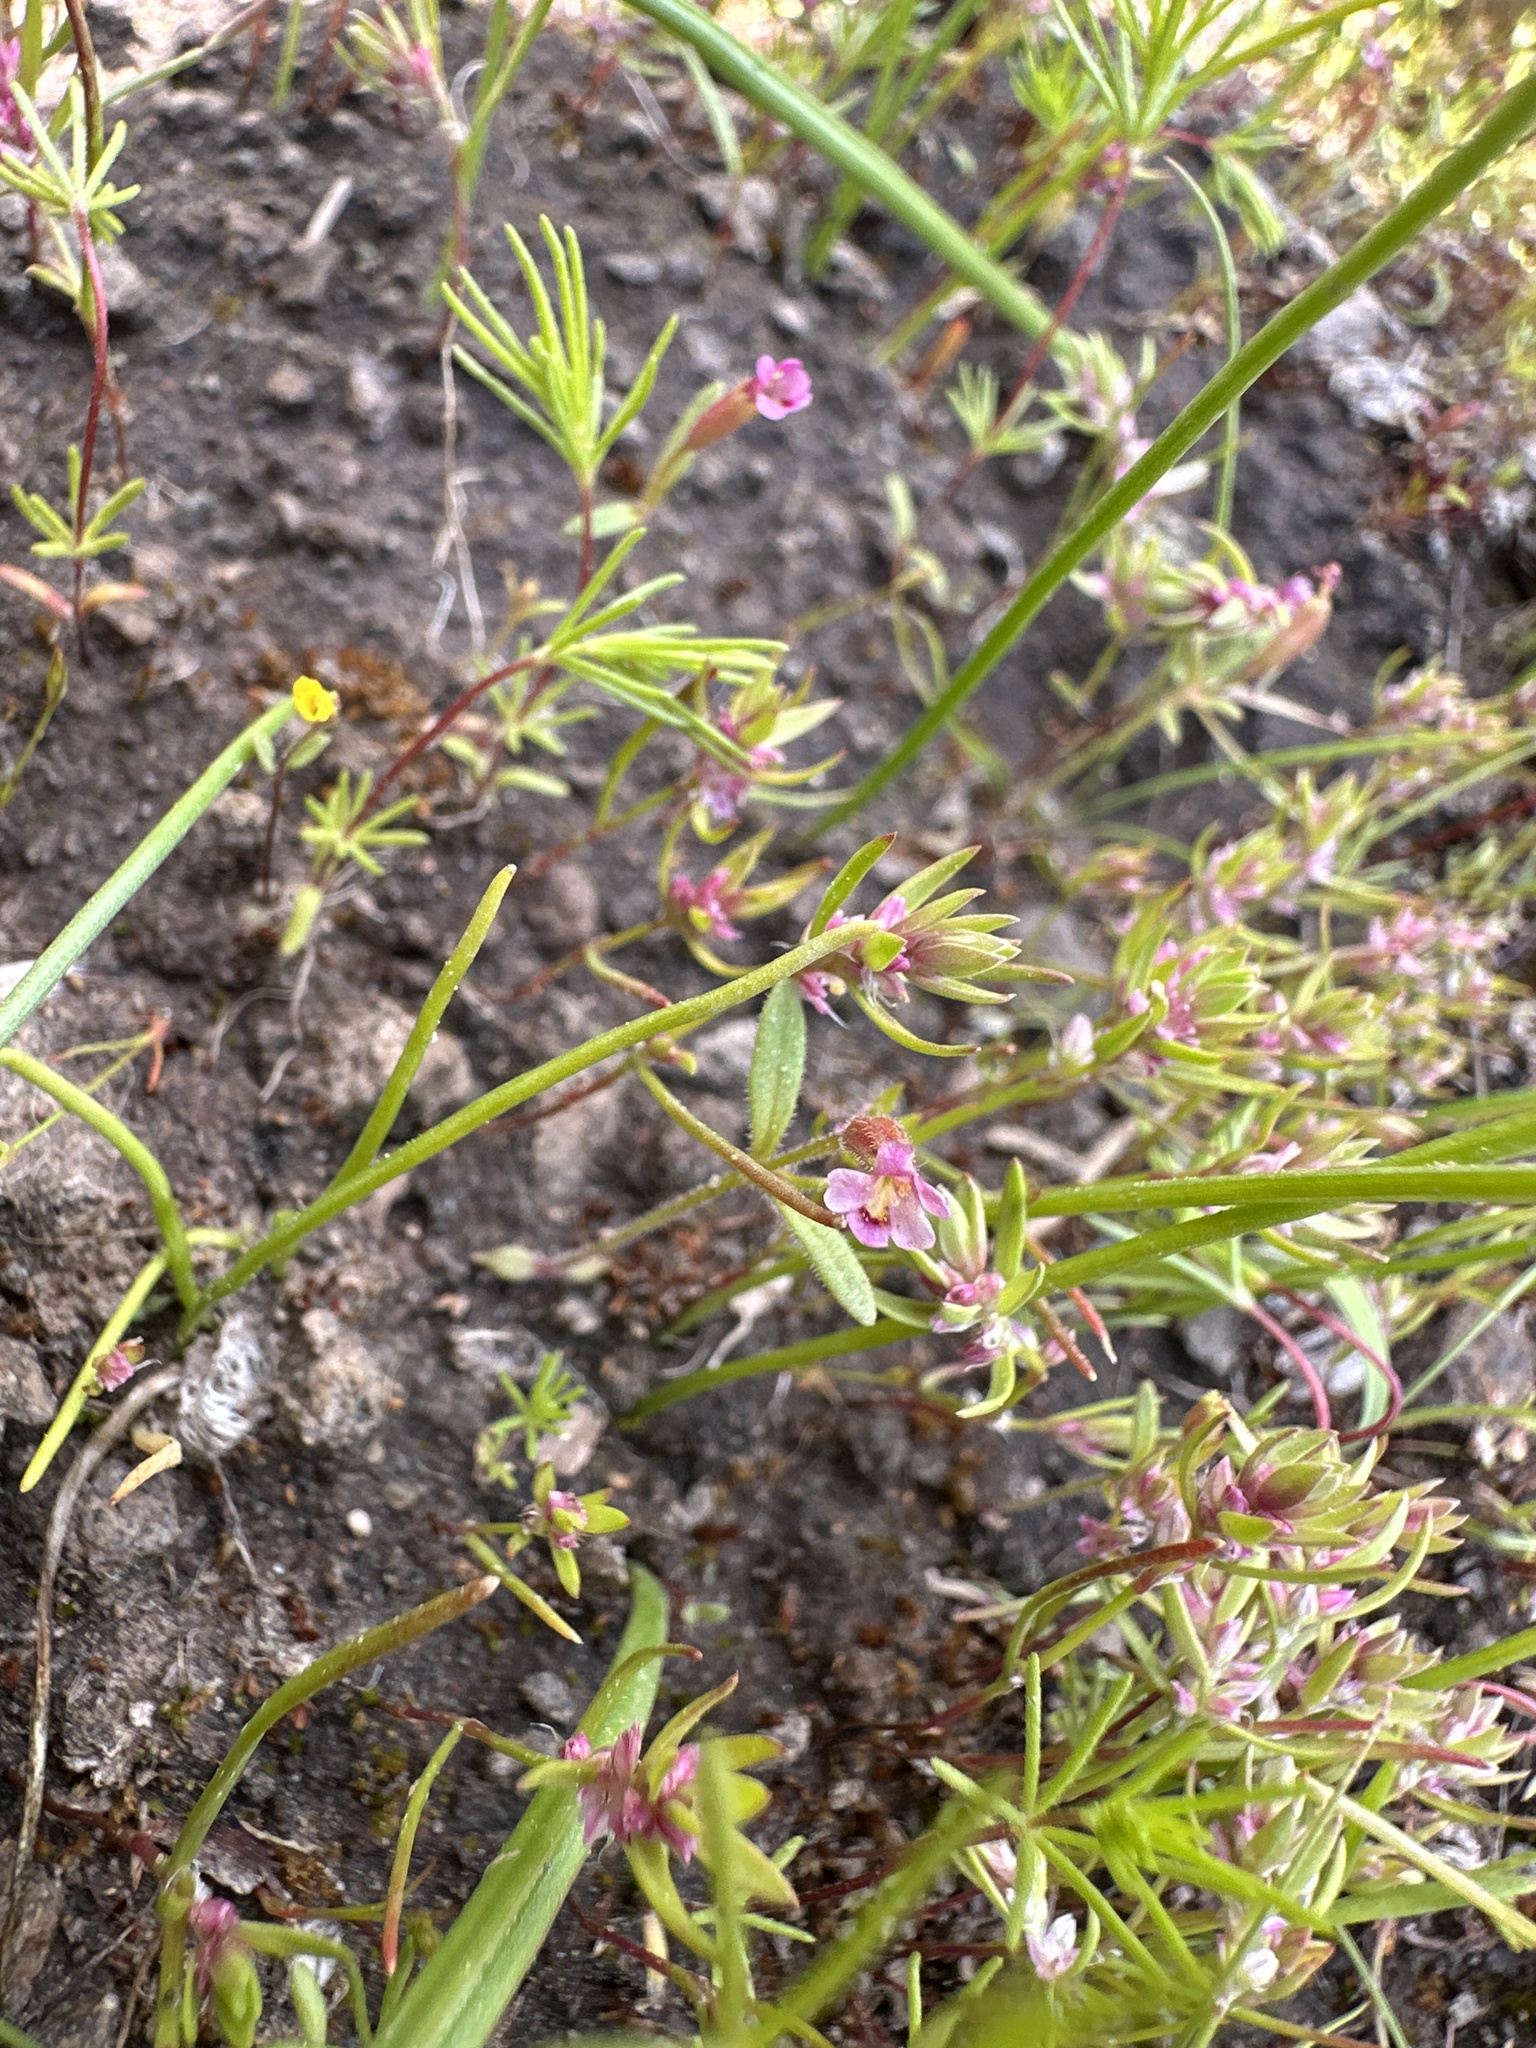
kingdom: Plantae
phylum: Tracheophyta
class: Magnoliopsida
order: Lamiales
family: Phrymaceae
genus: Erythranthe
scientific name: Erythranthe breweri
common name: Brewer's monkeyflower
